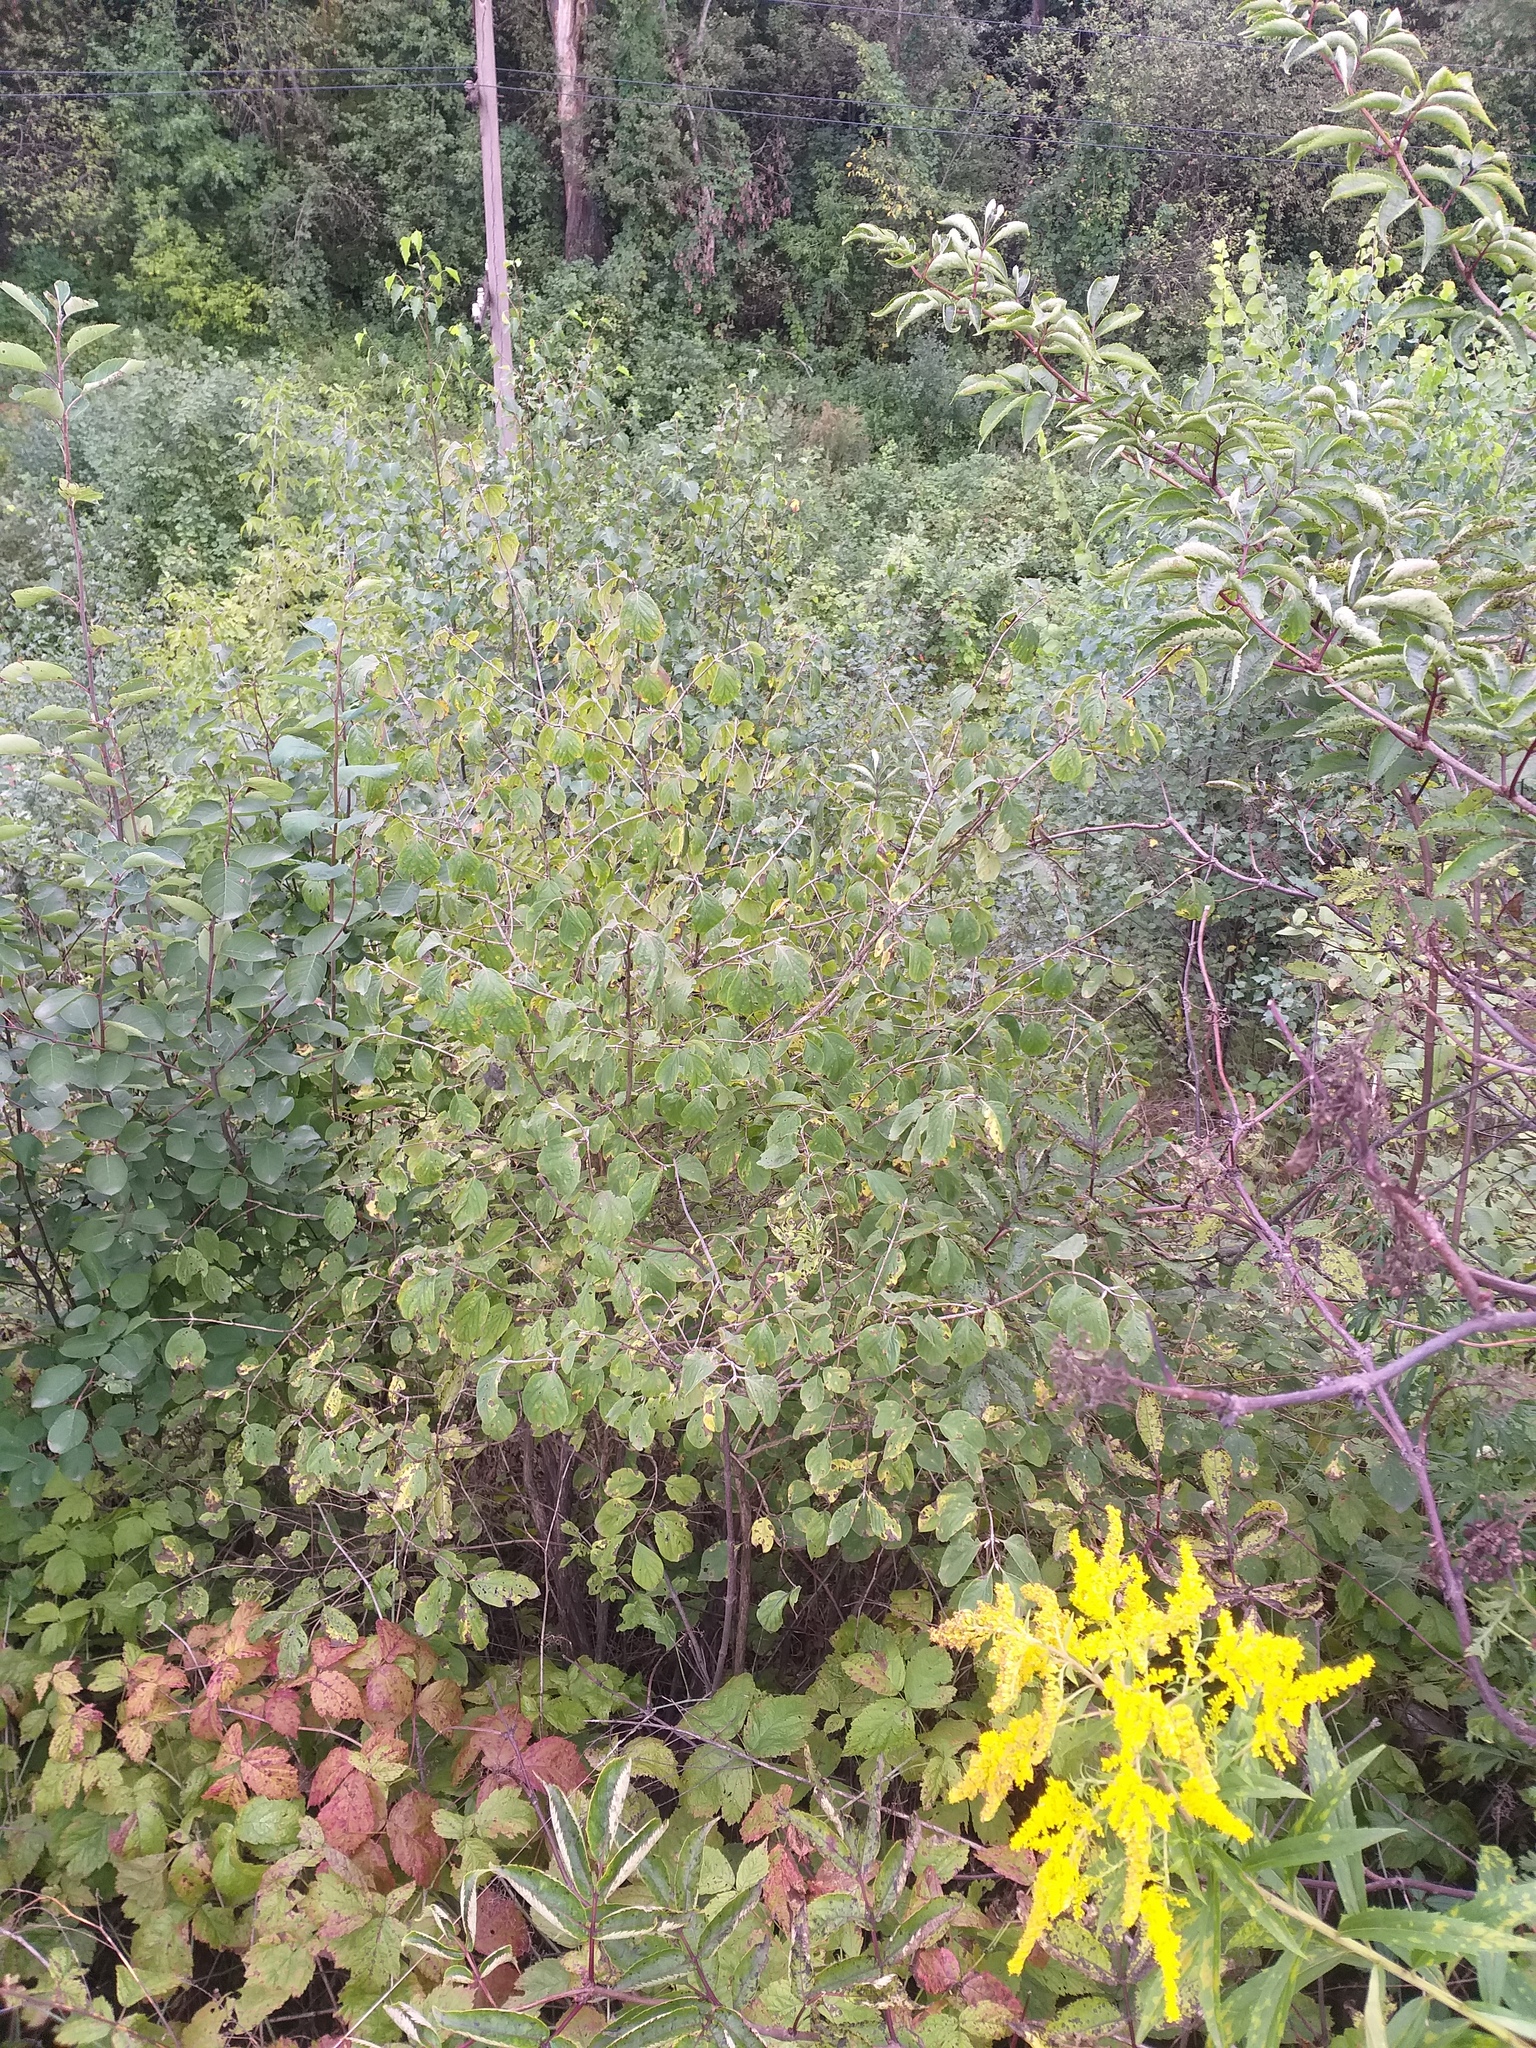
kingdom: Plantae
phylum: Tracheophyta
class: Magnoliopsida
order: Dipsacales
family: Caprifoliaceae
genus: Lonicera
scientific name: Lonicera xylosteum
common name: Fly honeysuckle
